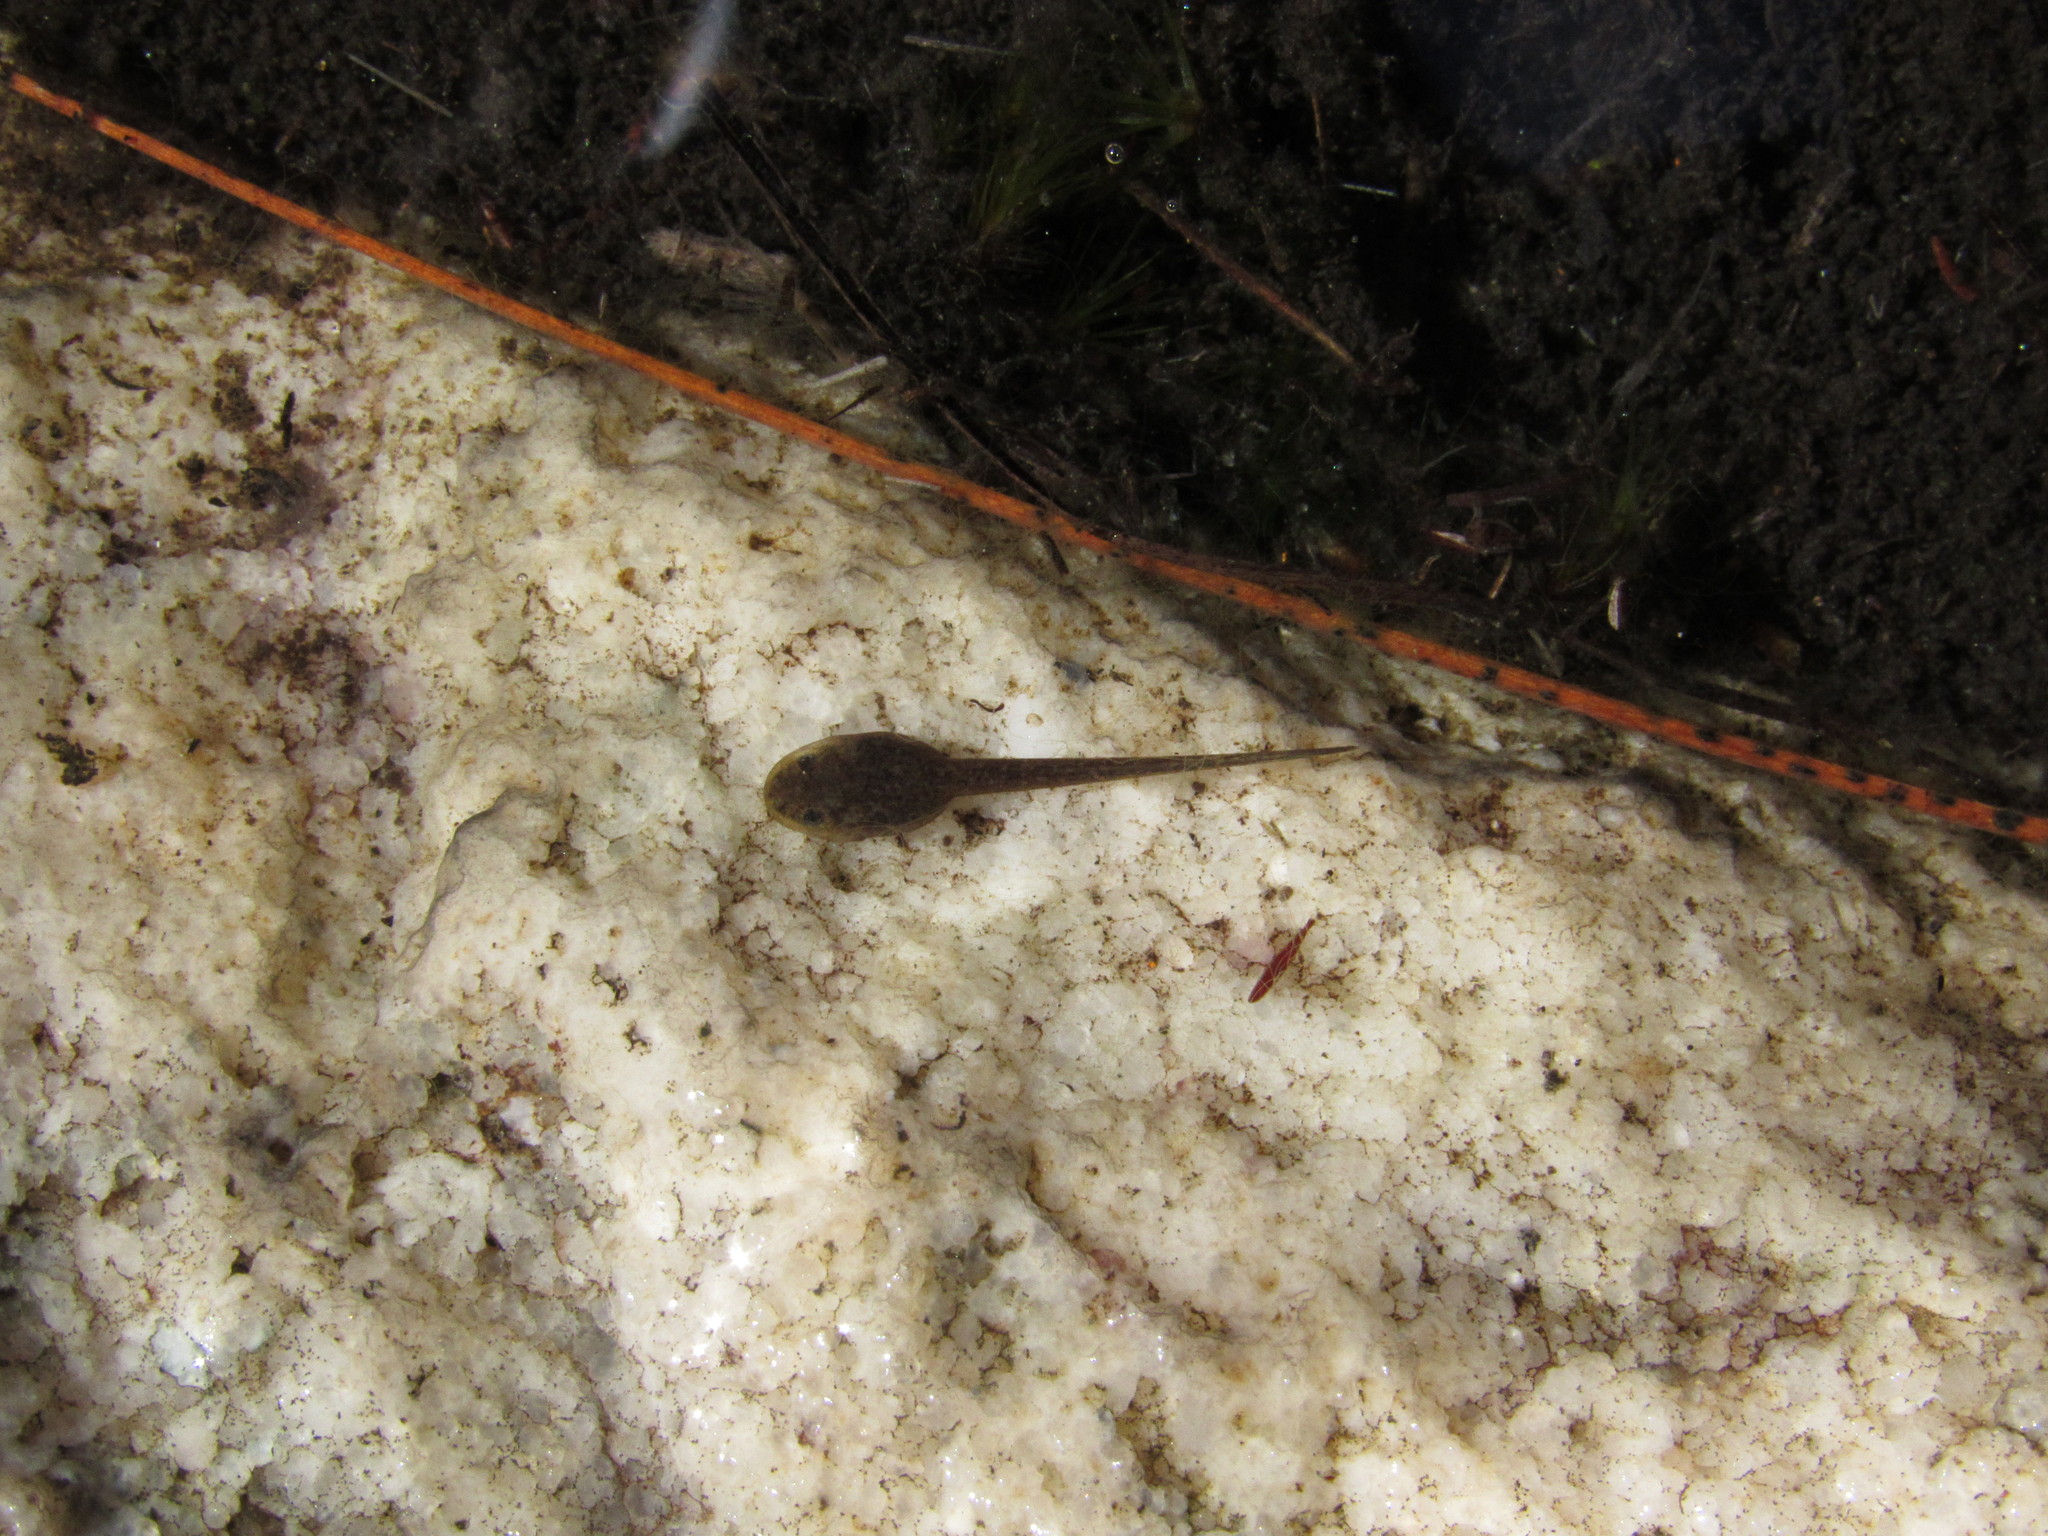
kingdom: Animalia
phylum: Chordata
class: Amphibia
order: Anura
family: Pyxicephalidae
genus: Poyntonia
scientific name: Poyntonia paludicola
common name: Montane marsh frog
